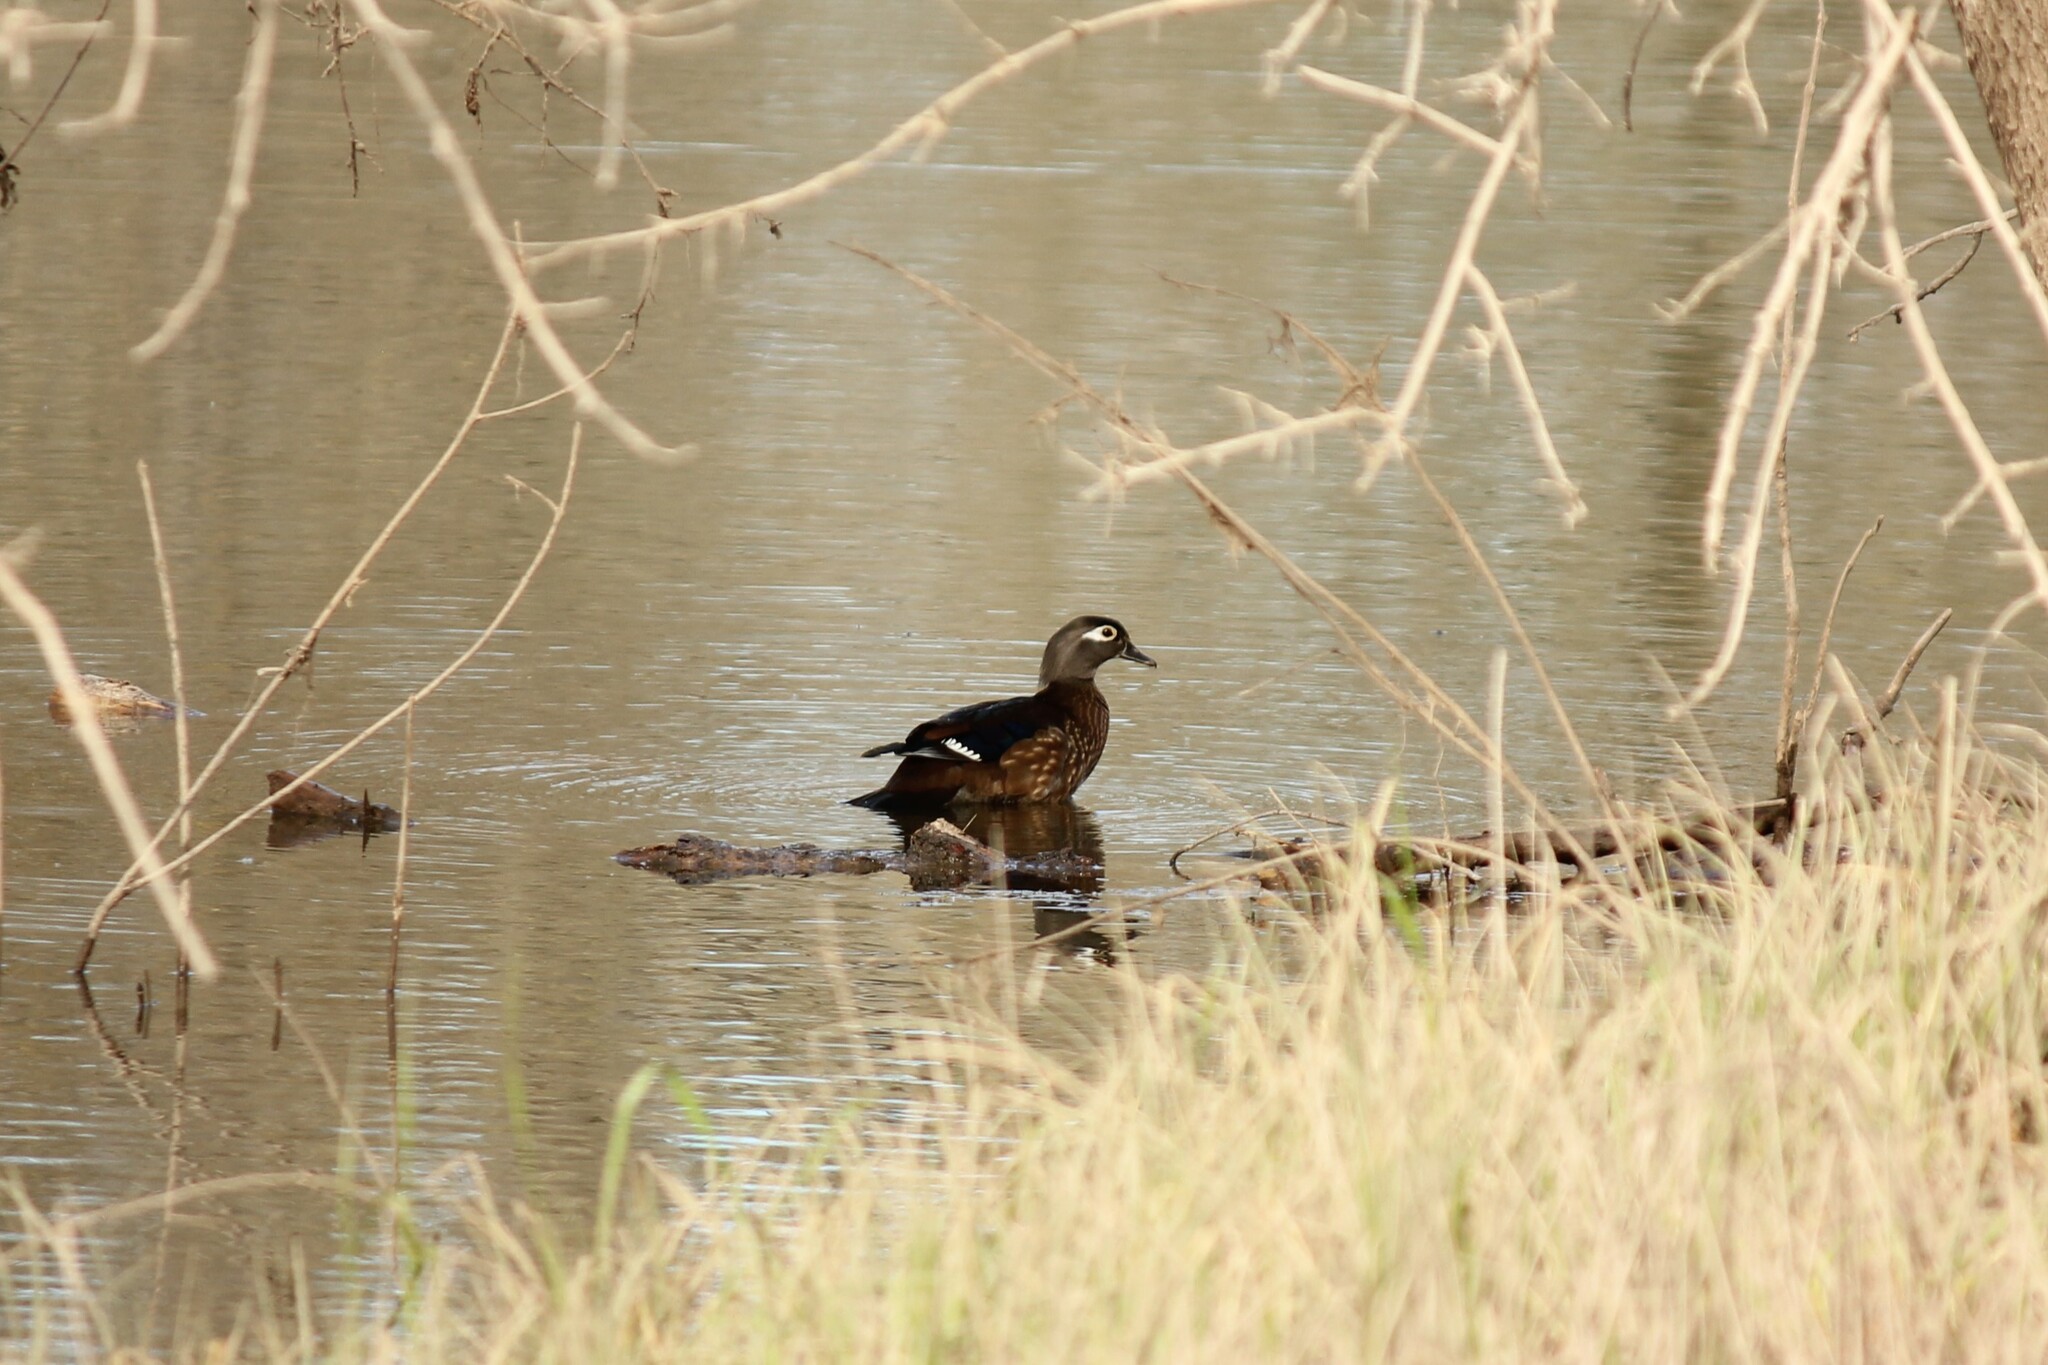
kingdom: Animalia
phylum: Chordata
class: Aves
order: Anseriformes
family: Anatidae
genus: Aix
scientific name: Aix sponsa
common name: Wood duck
